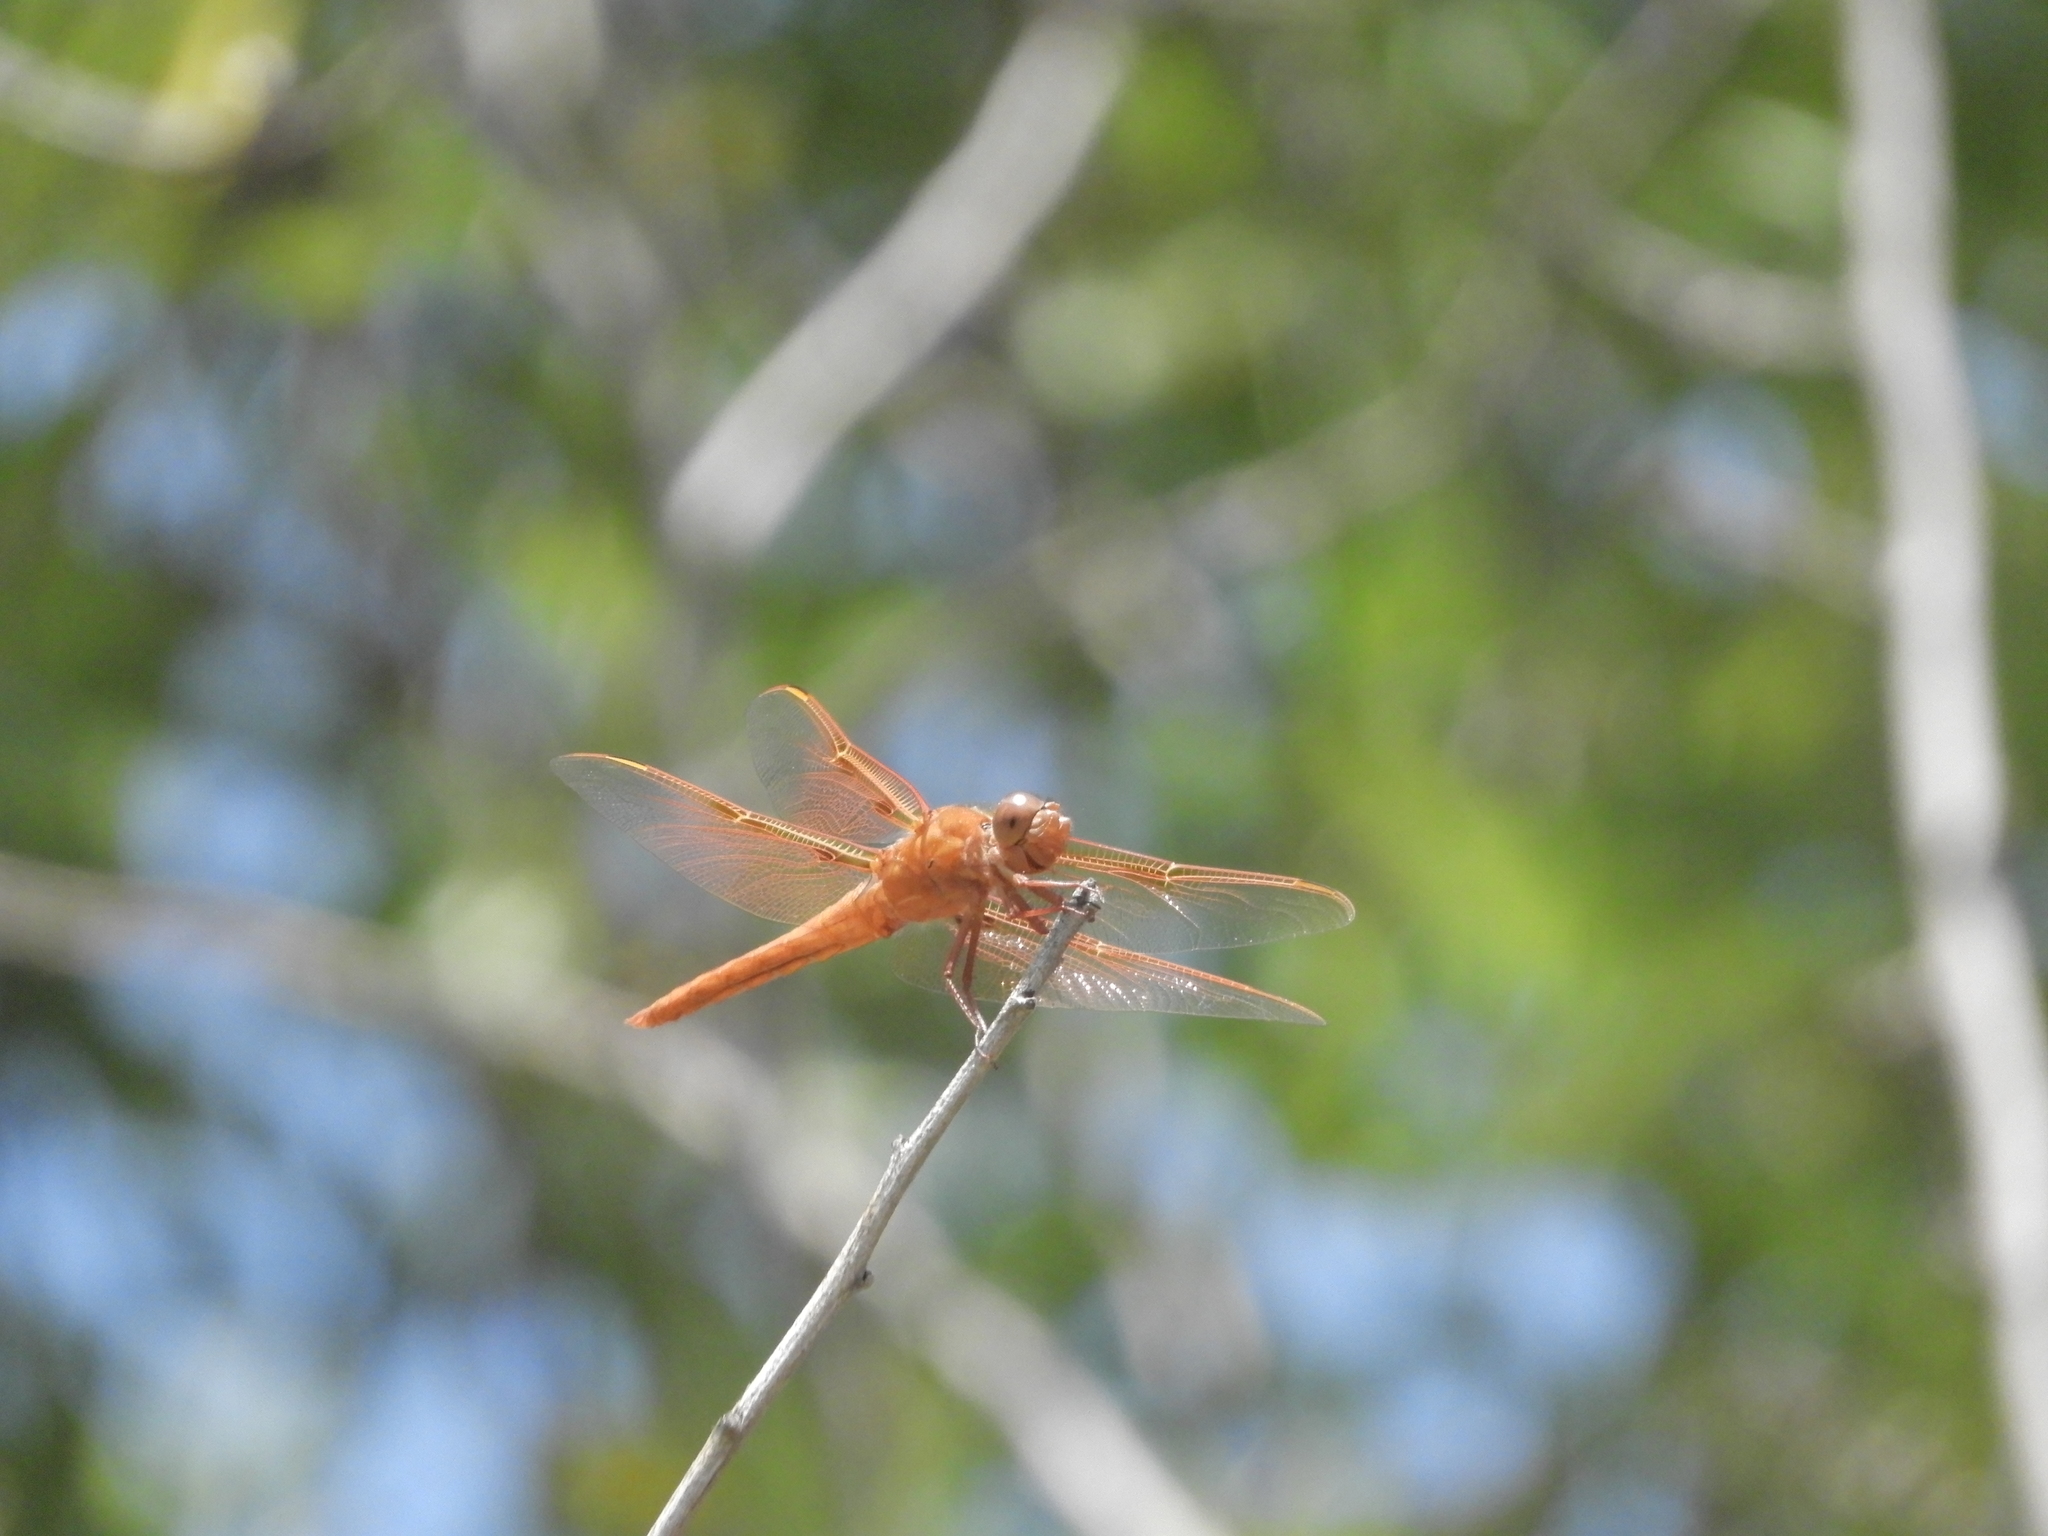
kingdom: Animalia
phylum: Arthropoda
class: Insecta
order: Odonata
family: Libellulidae
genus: Libellula
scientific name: Libellula saturata
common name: Flame skimmer
